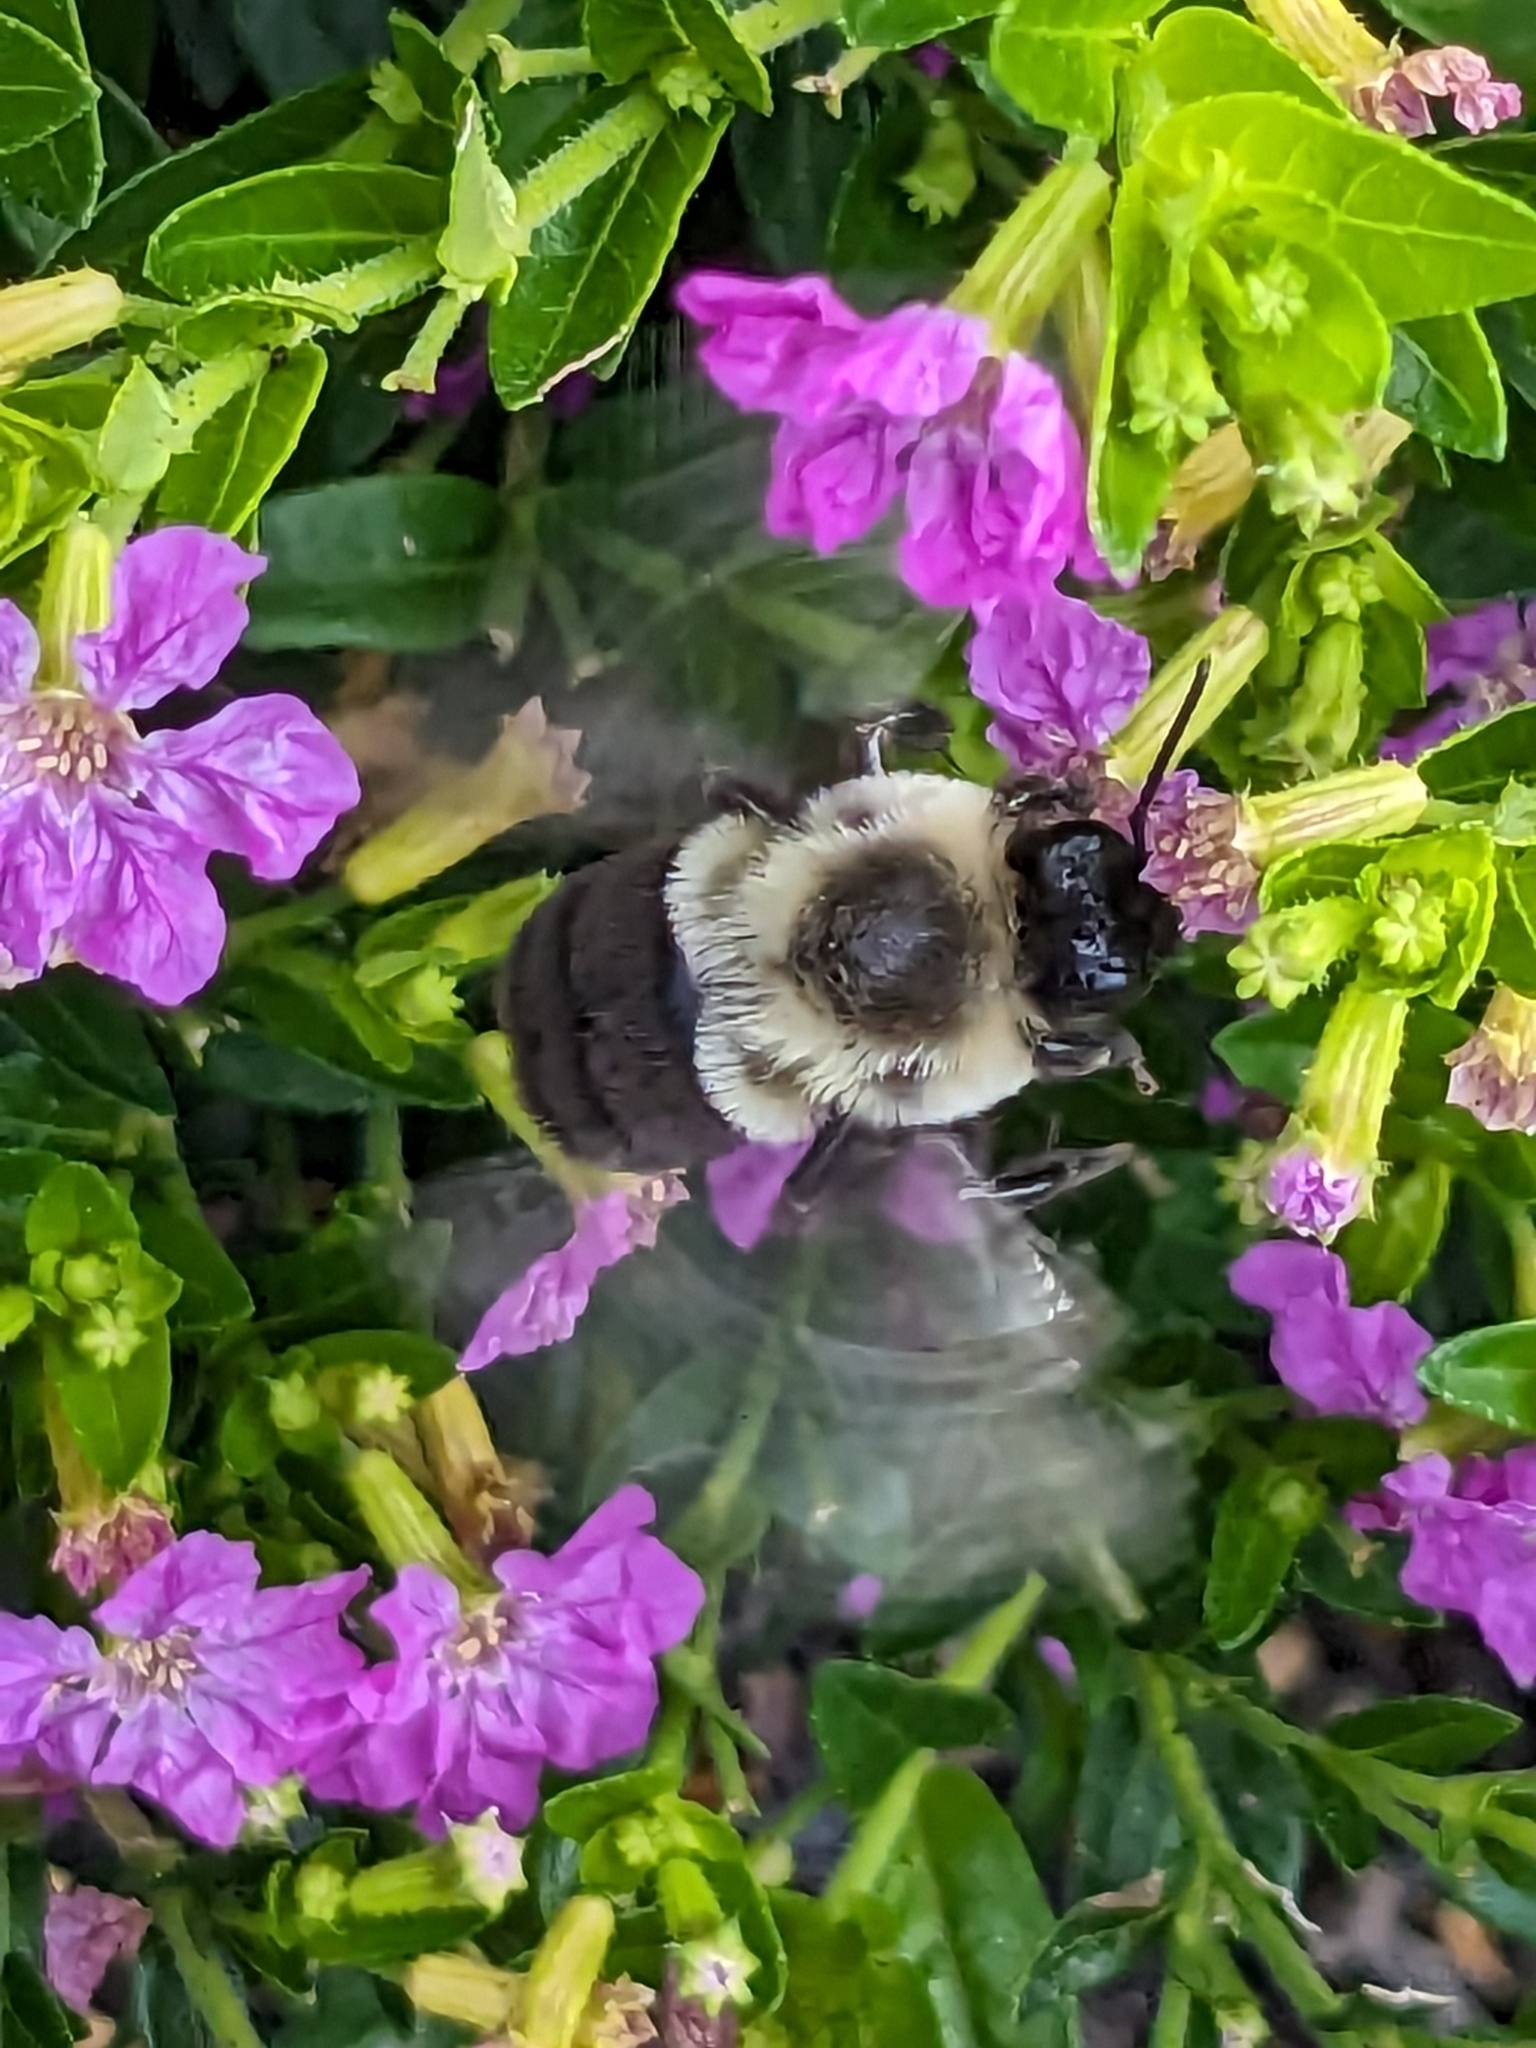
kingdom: Animalia
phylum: Arthropoda
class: Insecta
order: Hymenoptera
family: Apidae
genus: Bombus
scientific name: Bombus impatiens
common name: Common eastern bumble bee
